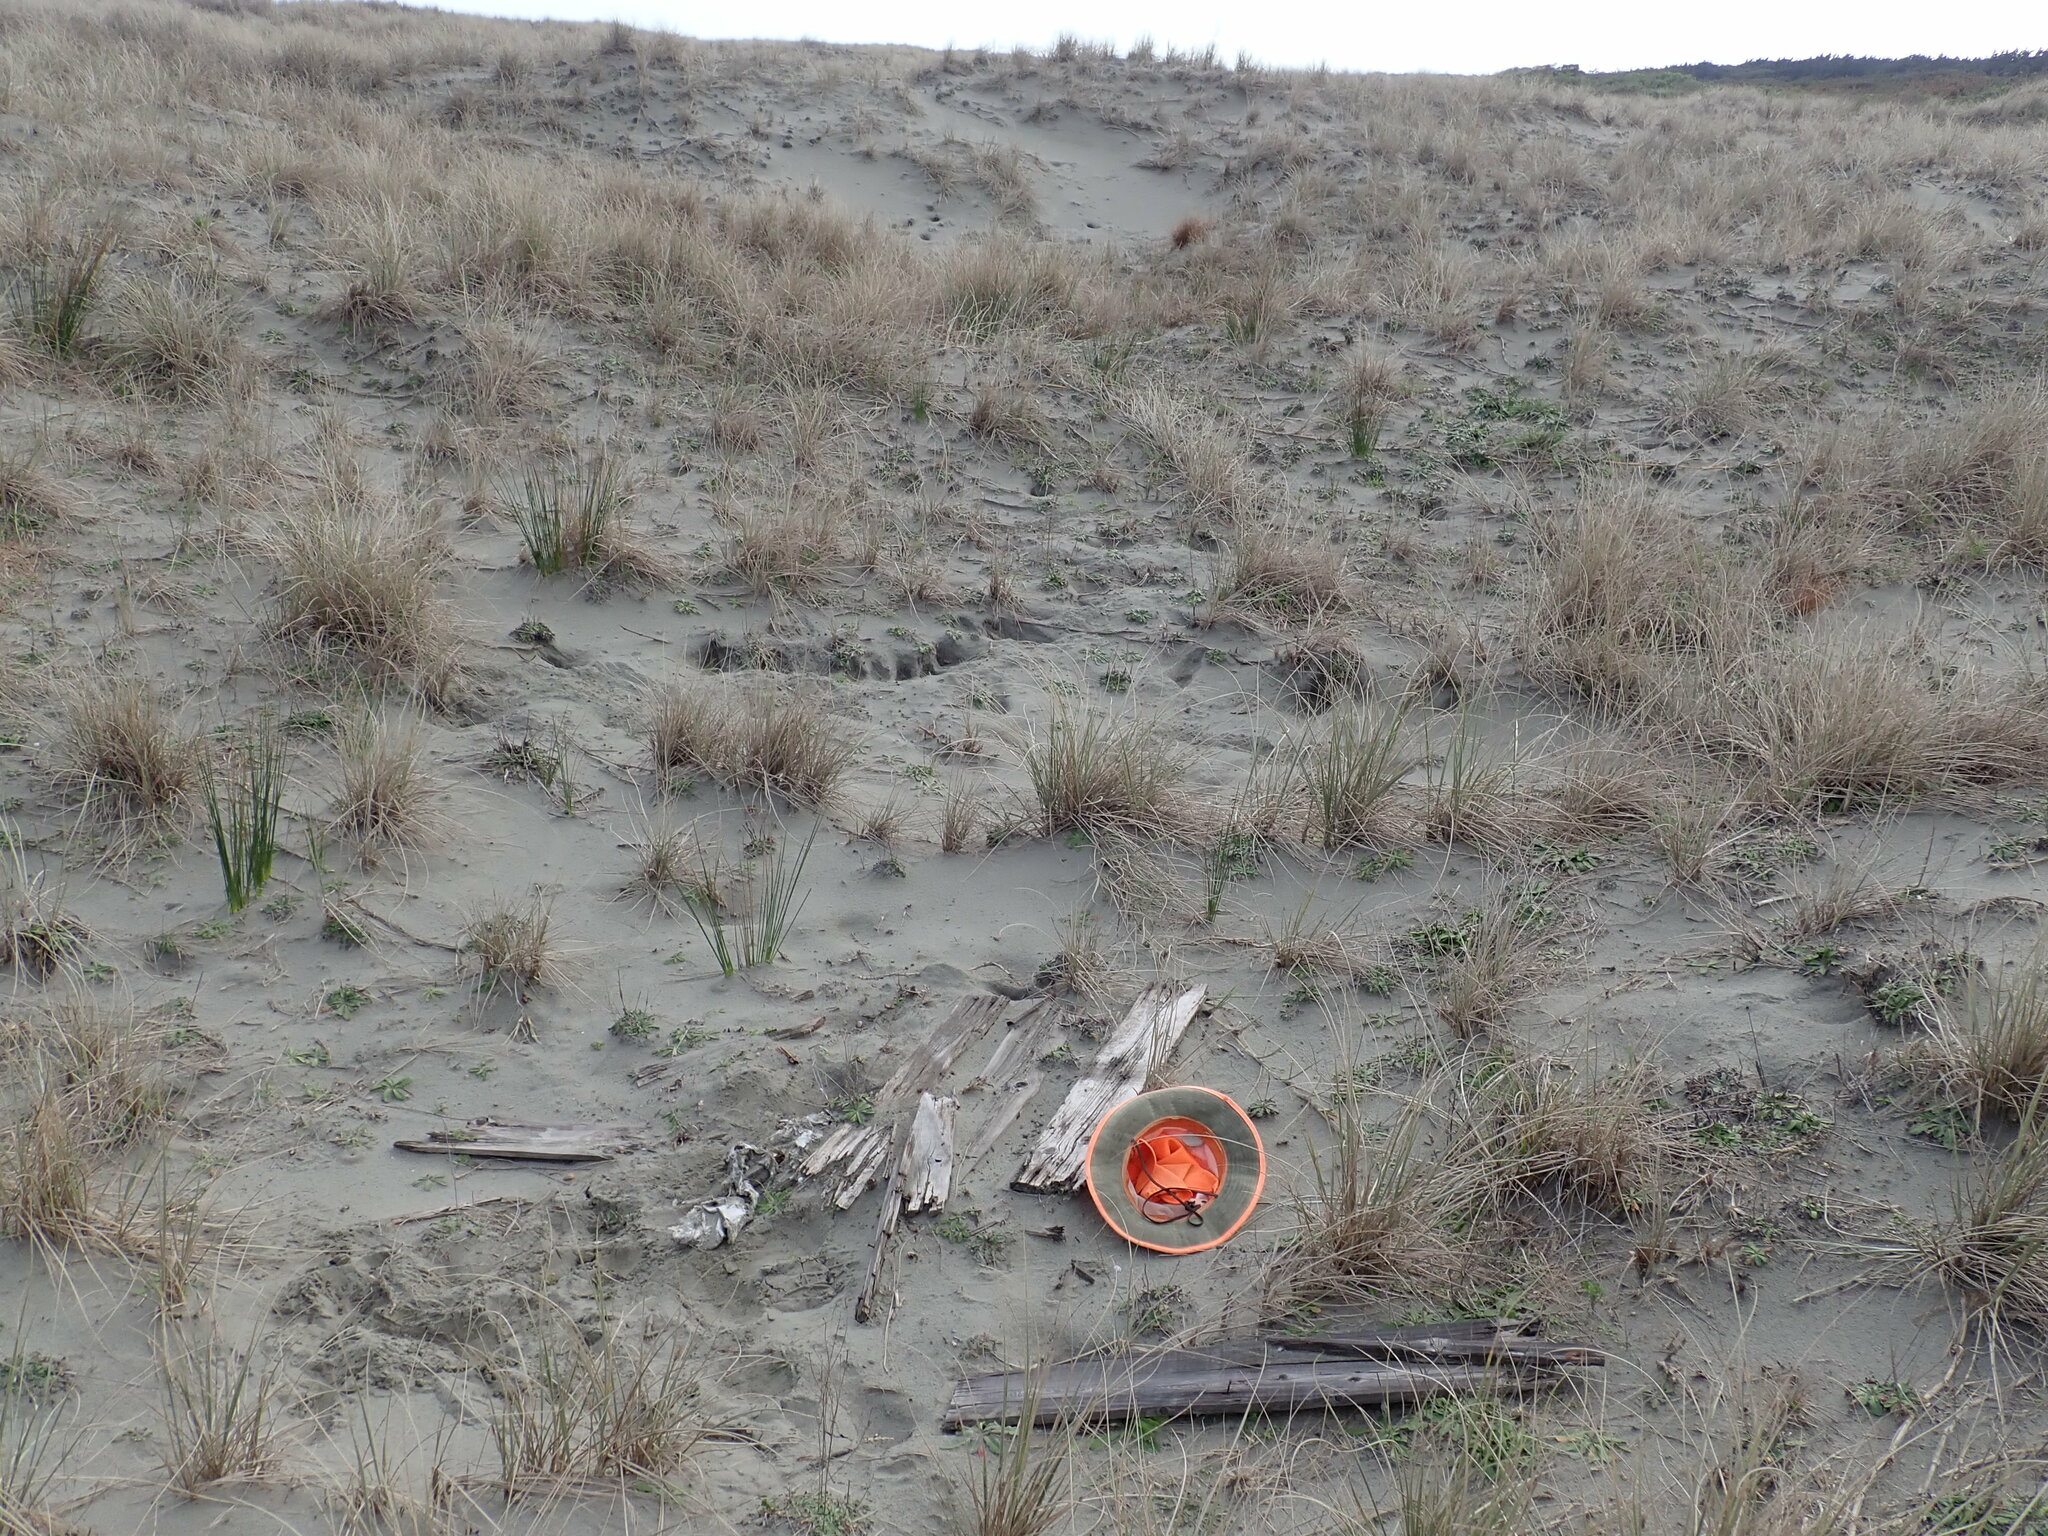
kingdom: Animalia
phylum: Arthropoda
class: Arachnida
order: Araneae
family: Theridiidae
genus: Latrodectus
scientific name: Latrodectus katipo
